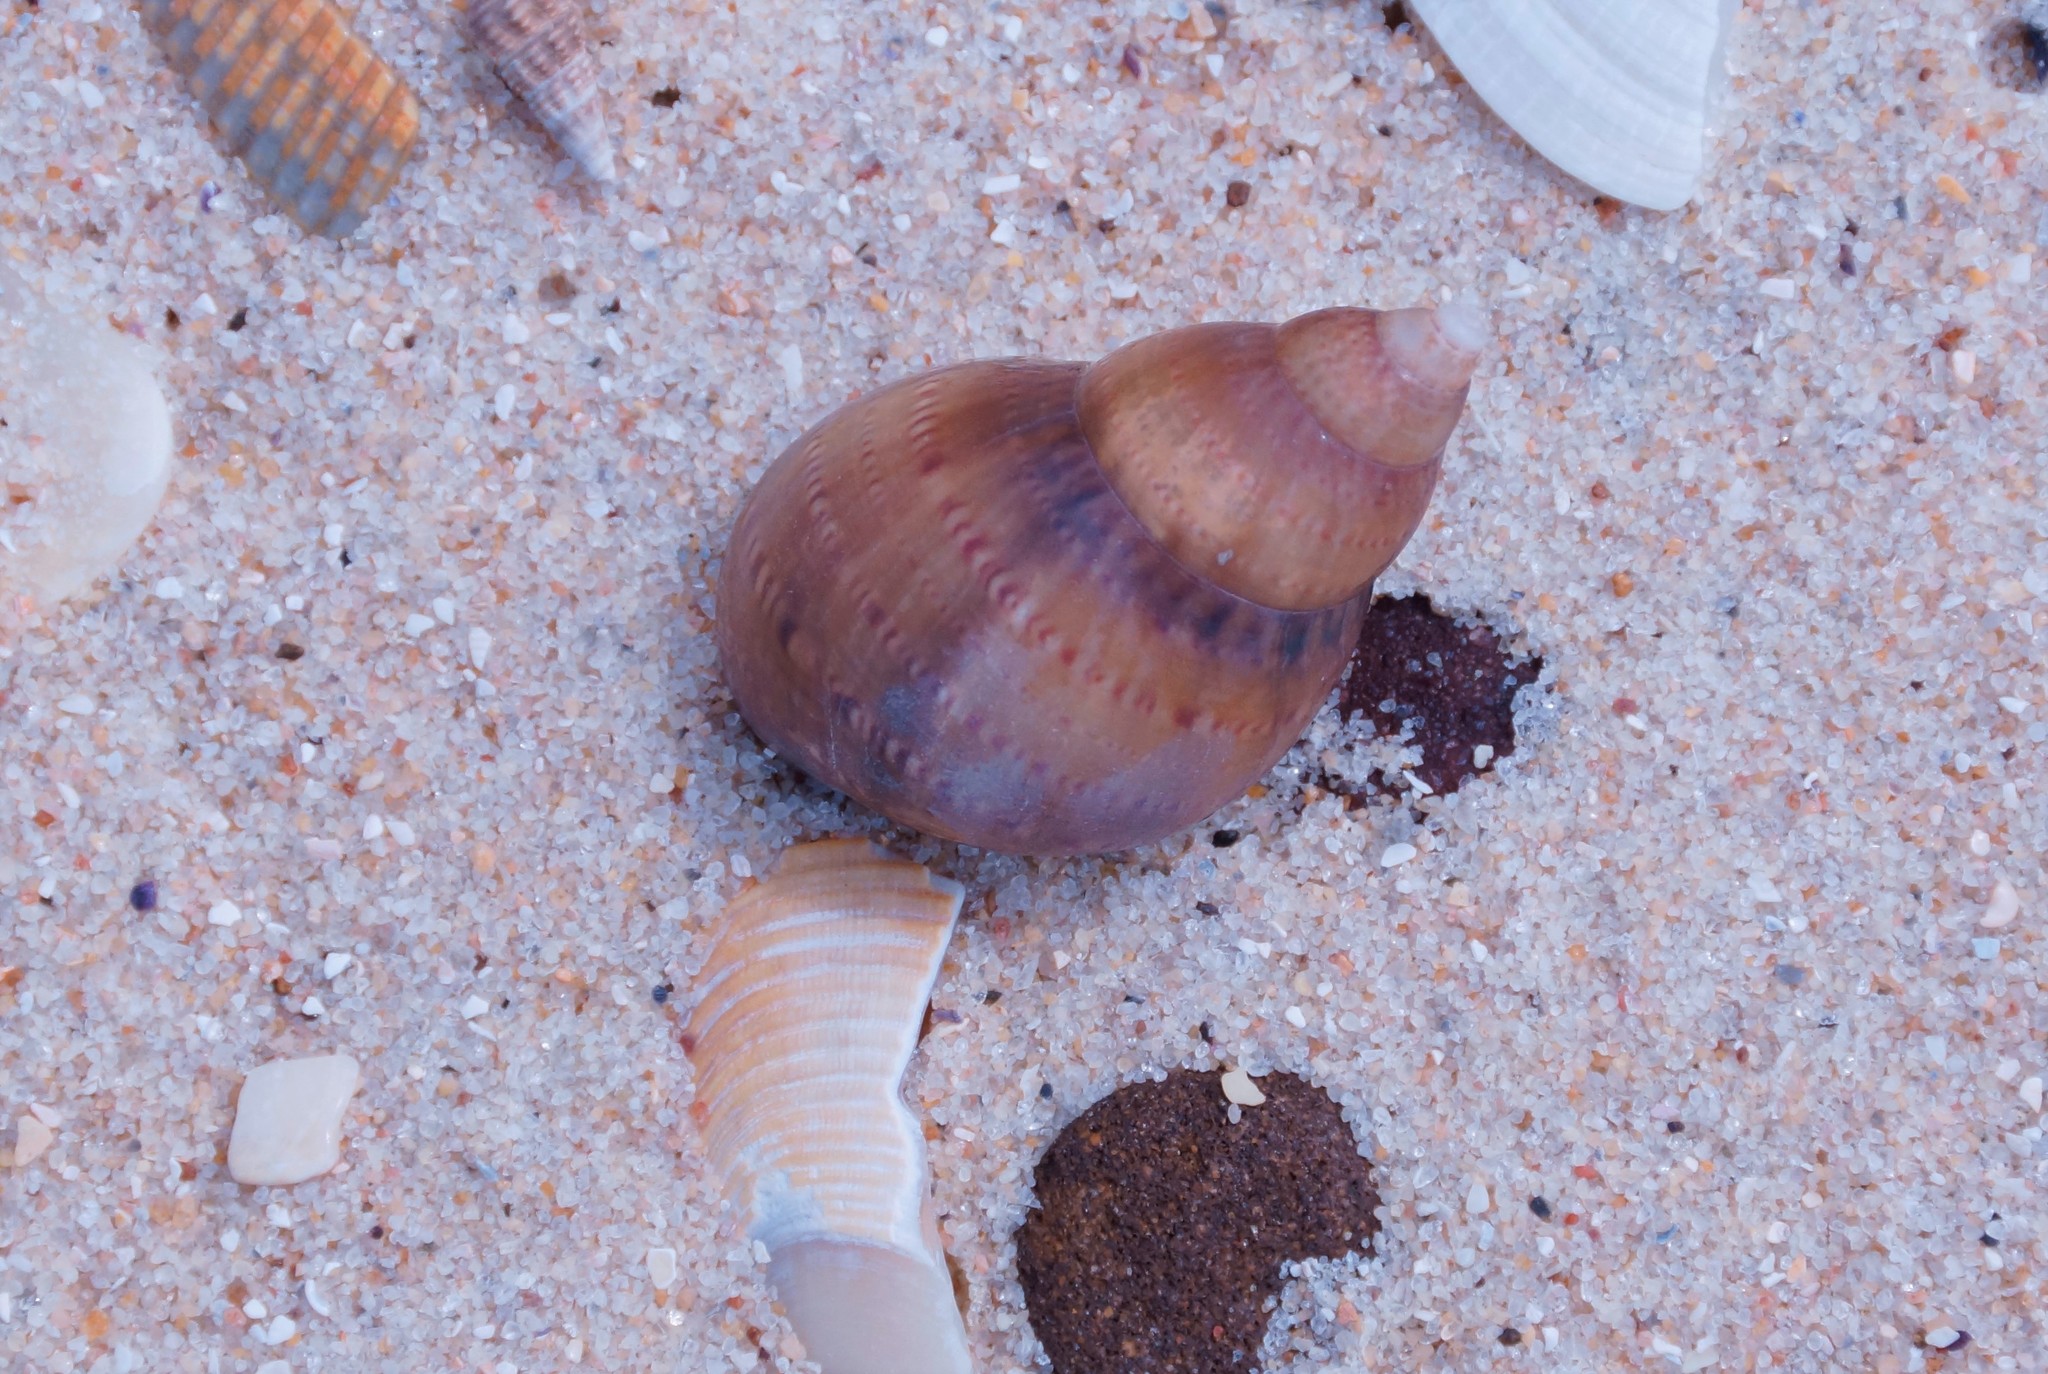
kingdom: Animalia
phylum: Mollusca
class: Gastropoda
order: Trochida
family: Phasianellidae
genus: Phasianella
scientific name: Phasianella australis
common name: Painted lady
